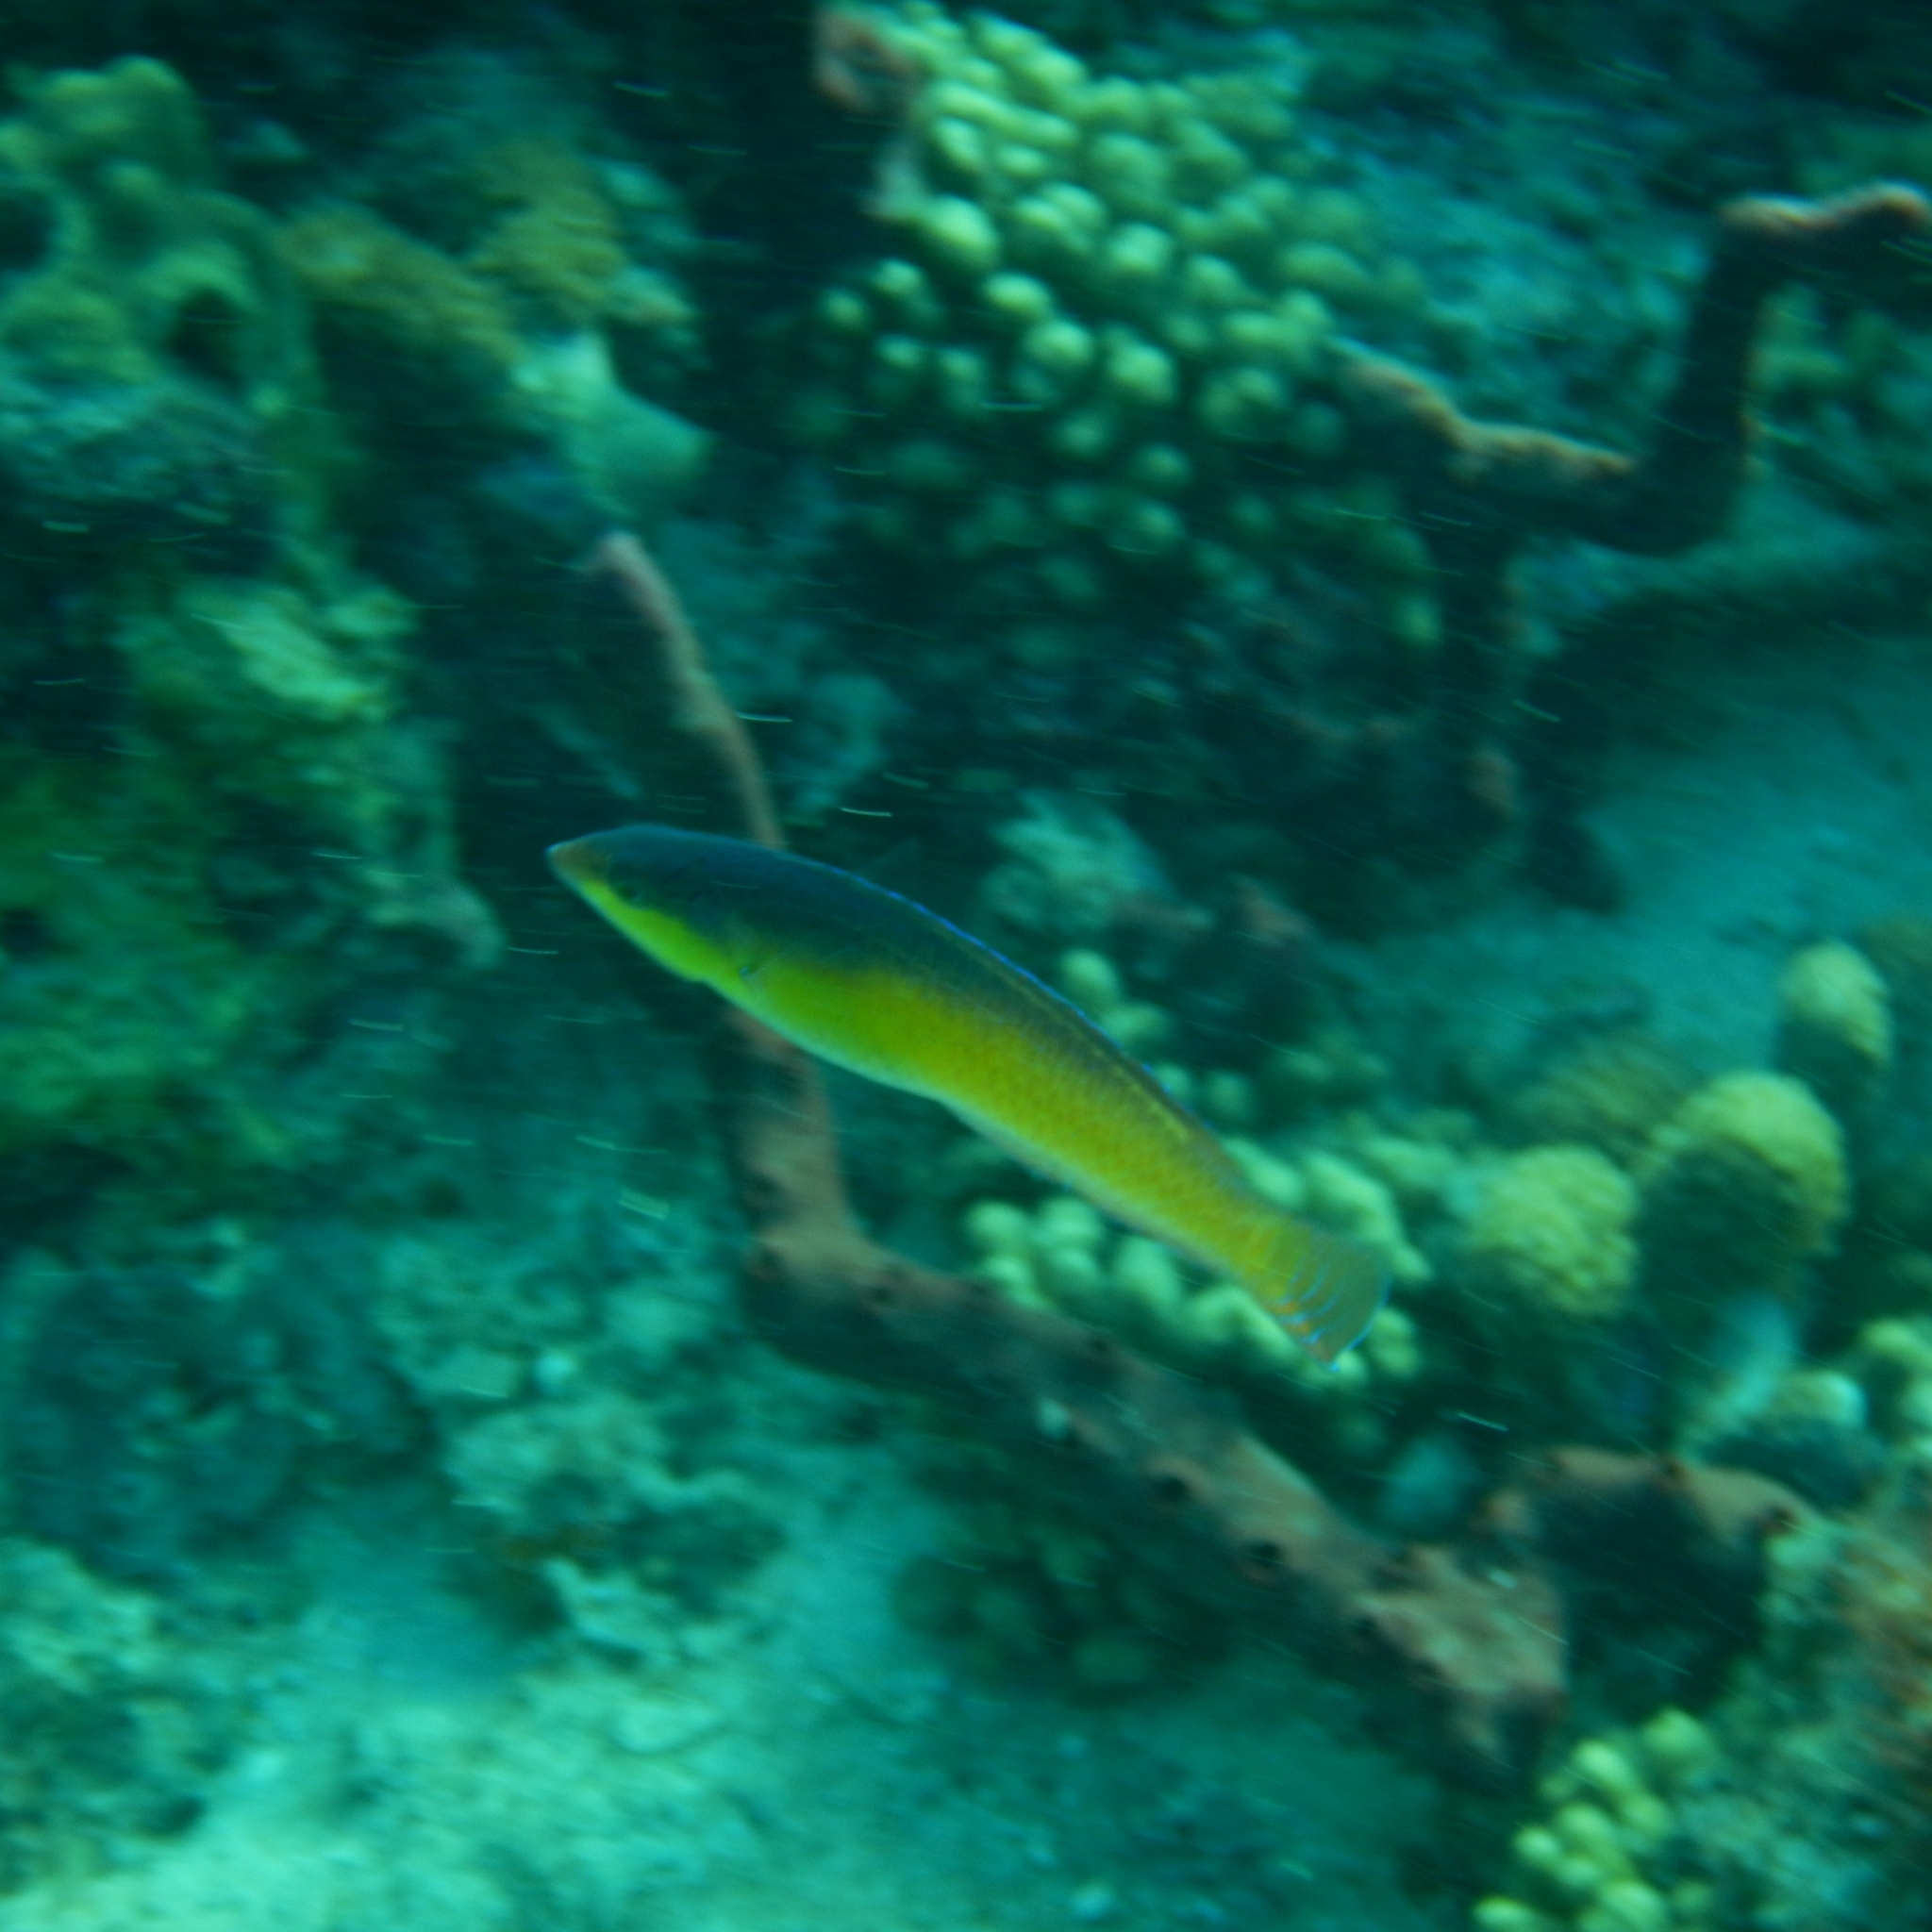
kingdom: Animalia
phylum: Chordata
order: Perciformes
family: Labridae
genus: Halichoeres
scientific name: Halichoeres garnoti
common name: Yellowhead wrasse
